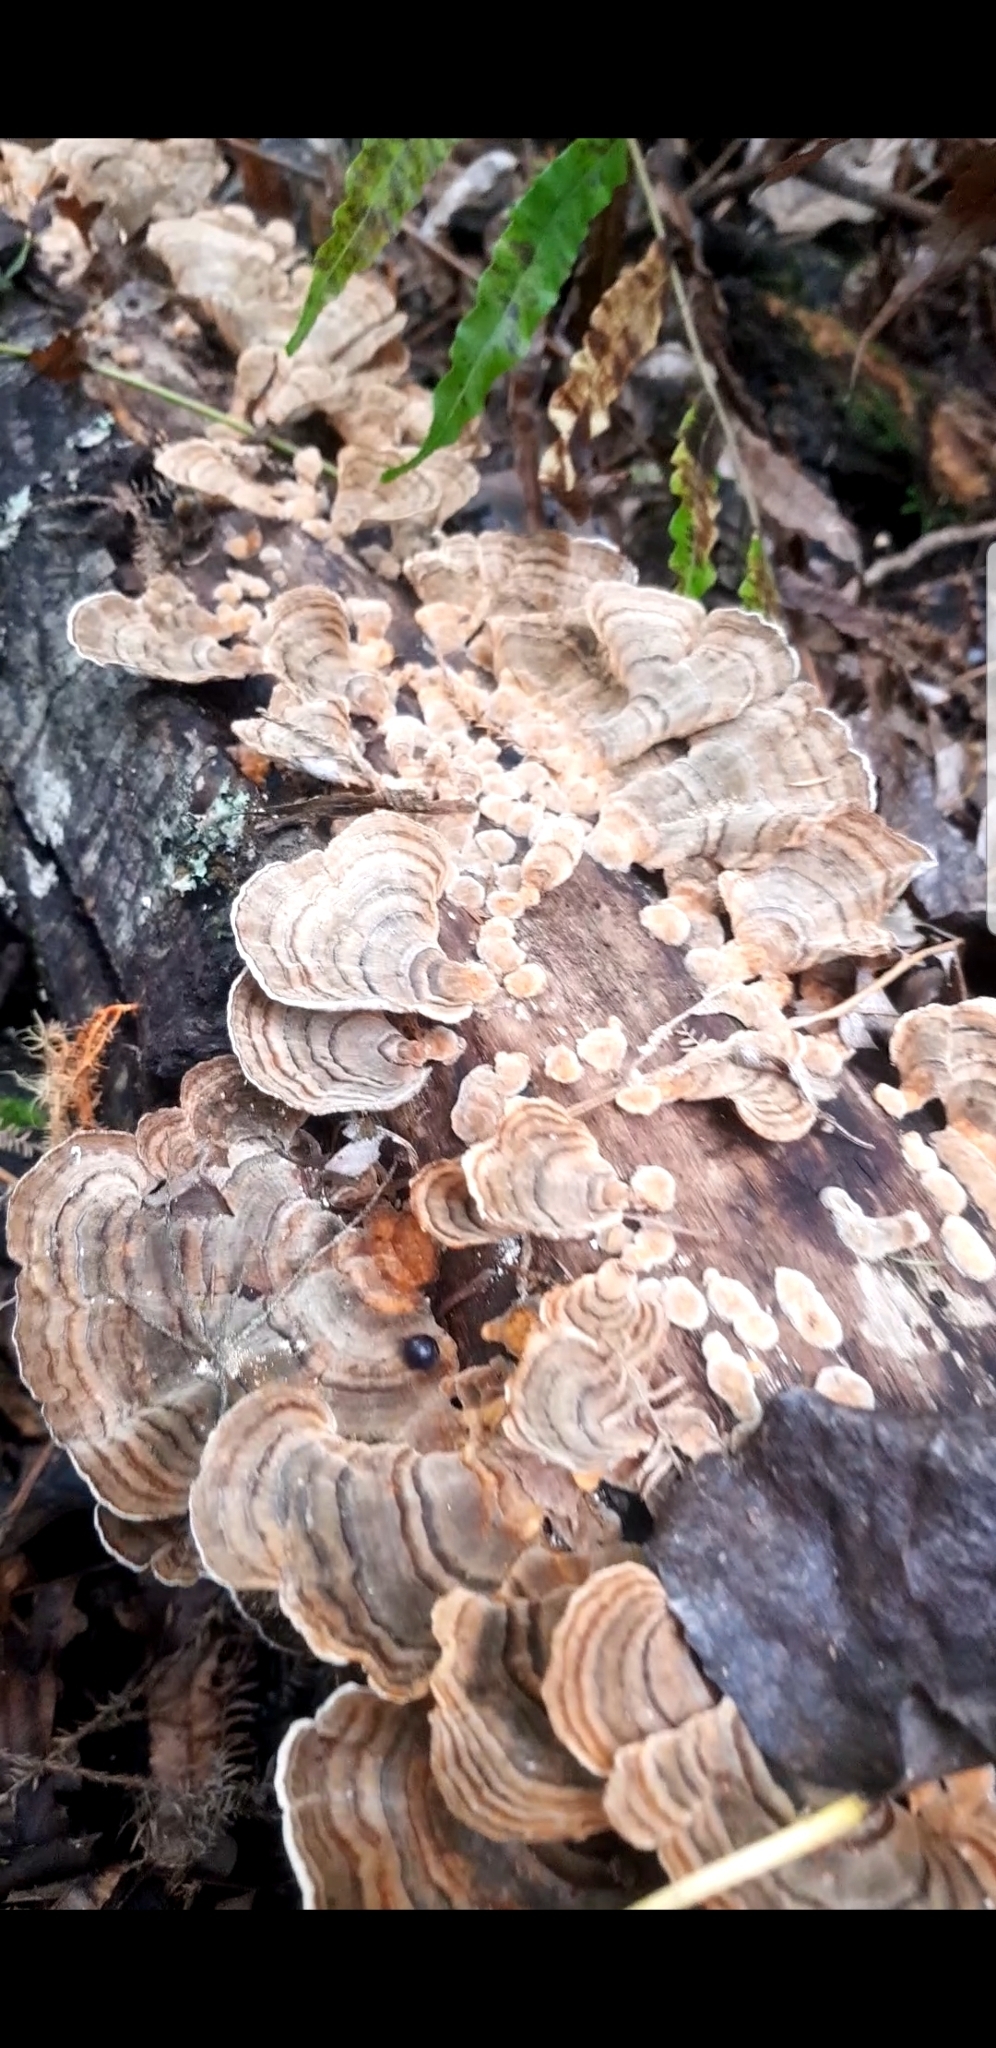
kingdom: Fungi
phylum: Basidiomycota
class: Agaricomycetes
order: Russulales
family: Stereaceae
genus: Stereum
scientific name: Stereum versicolor
